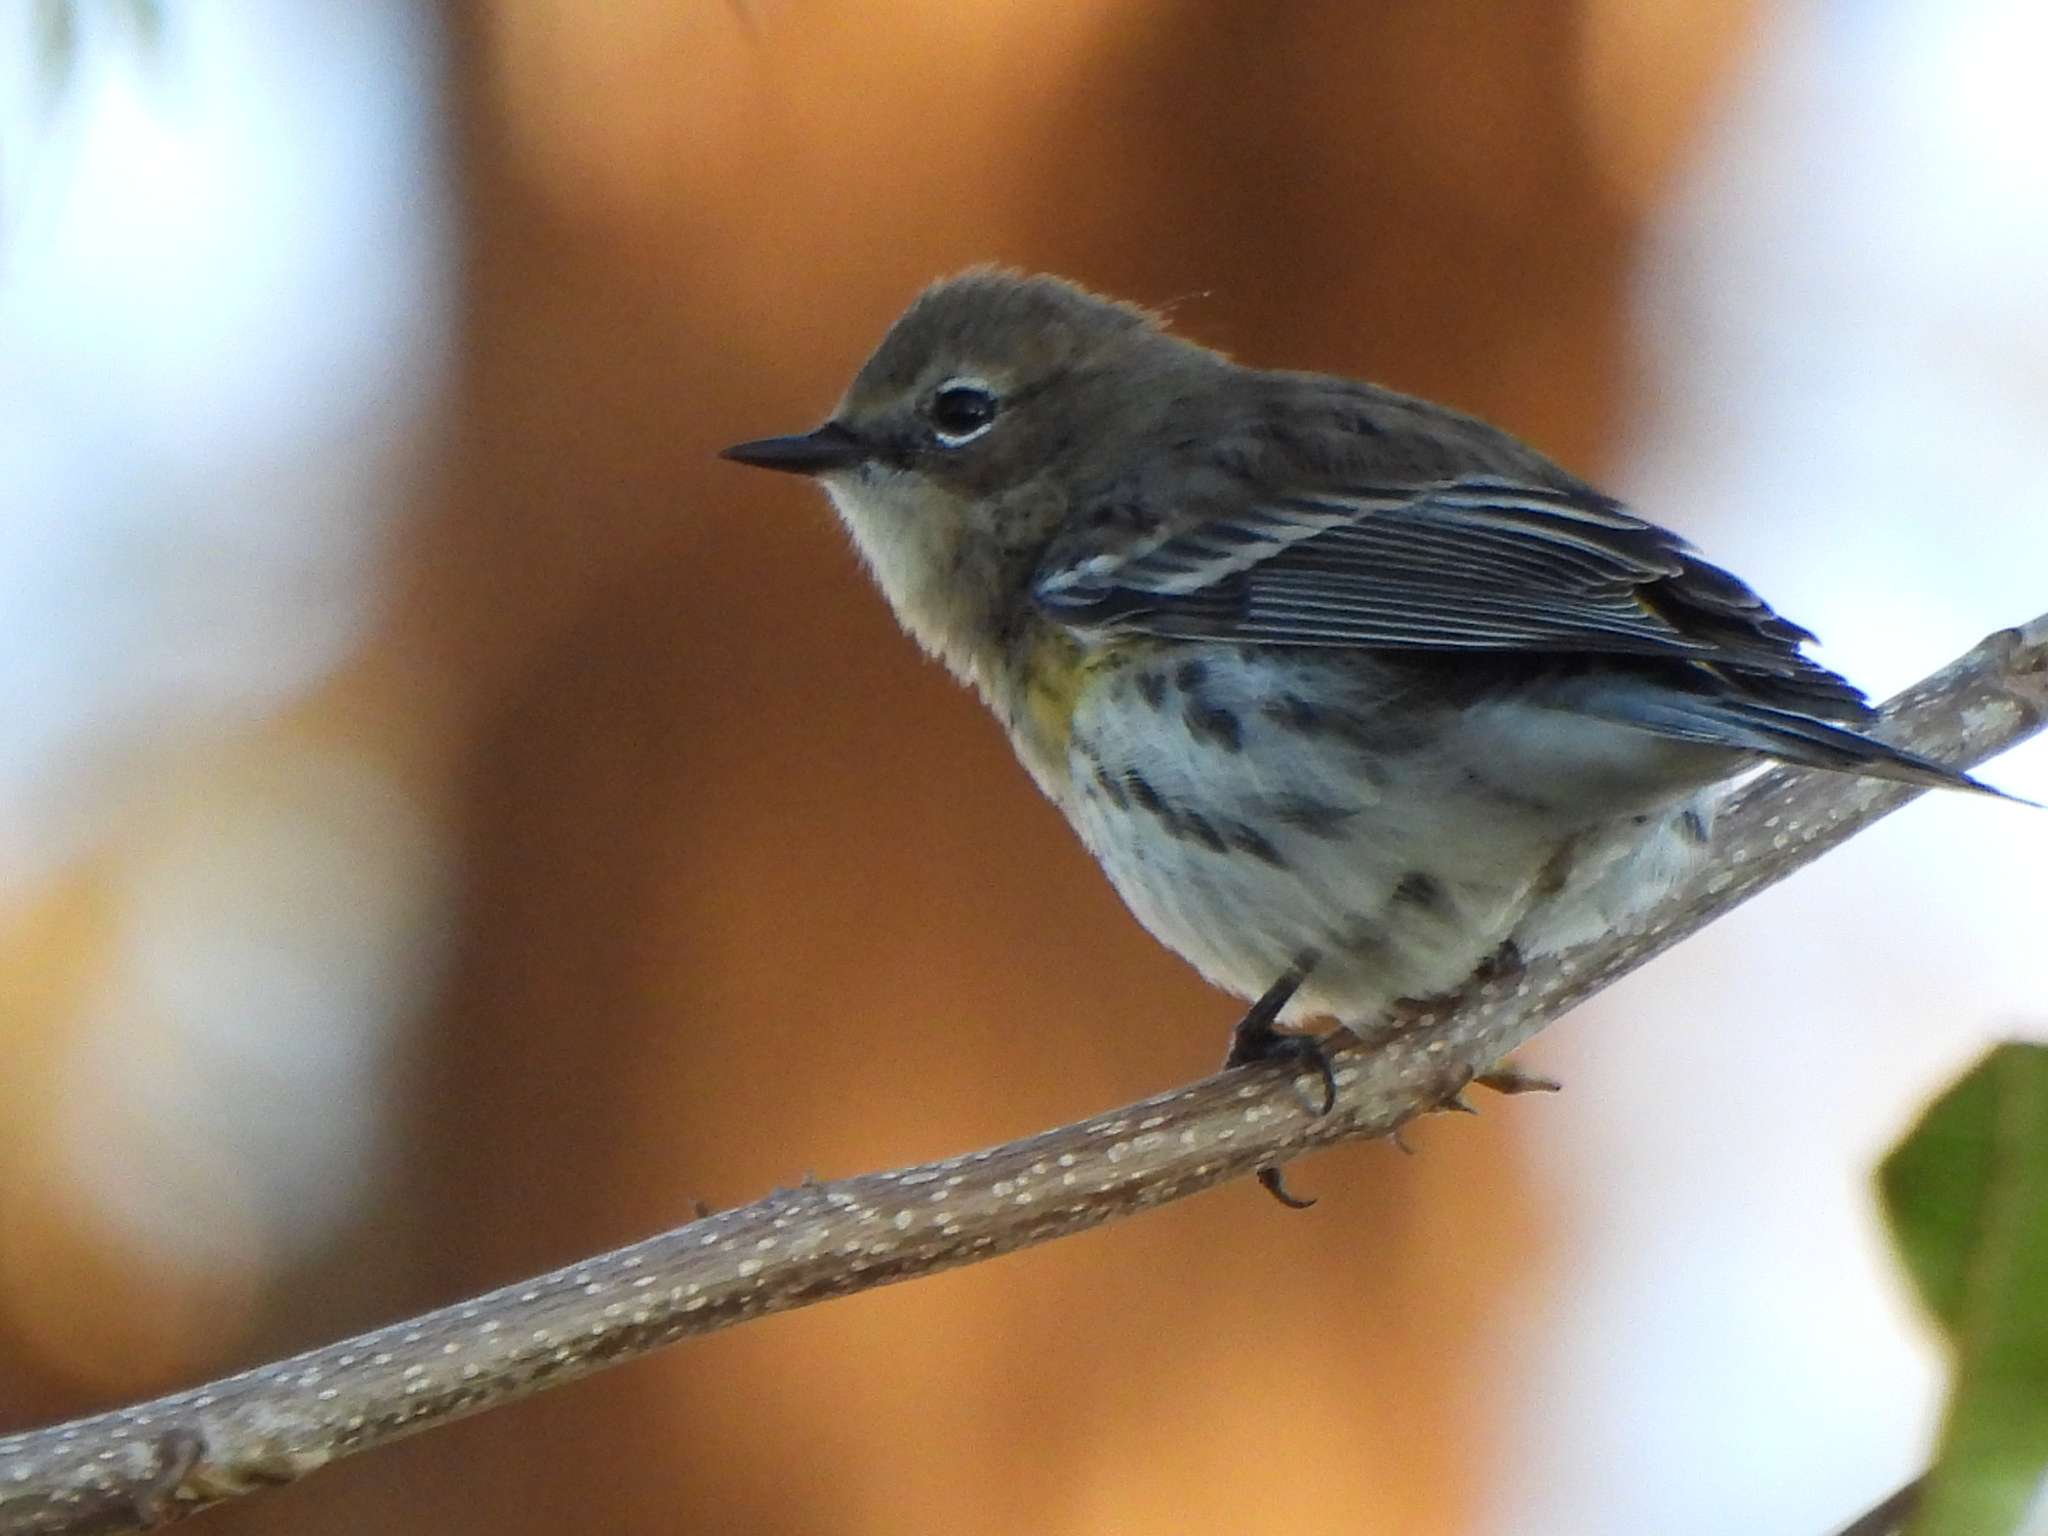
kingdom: Animalia
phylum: Chordata
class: Aves
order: Passeriformes
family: Parulidae
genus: Setophaga
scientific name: Setophaga coronata
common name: Myrtle warbler
